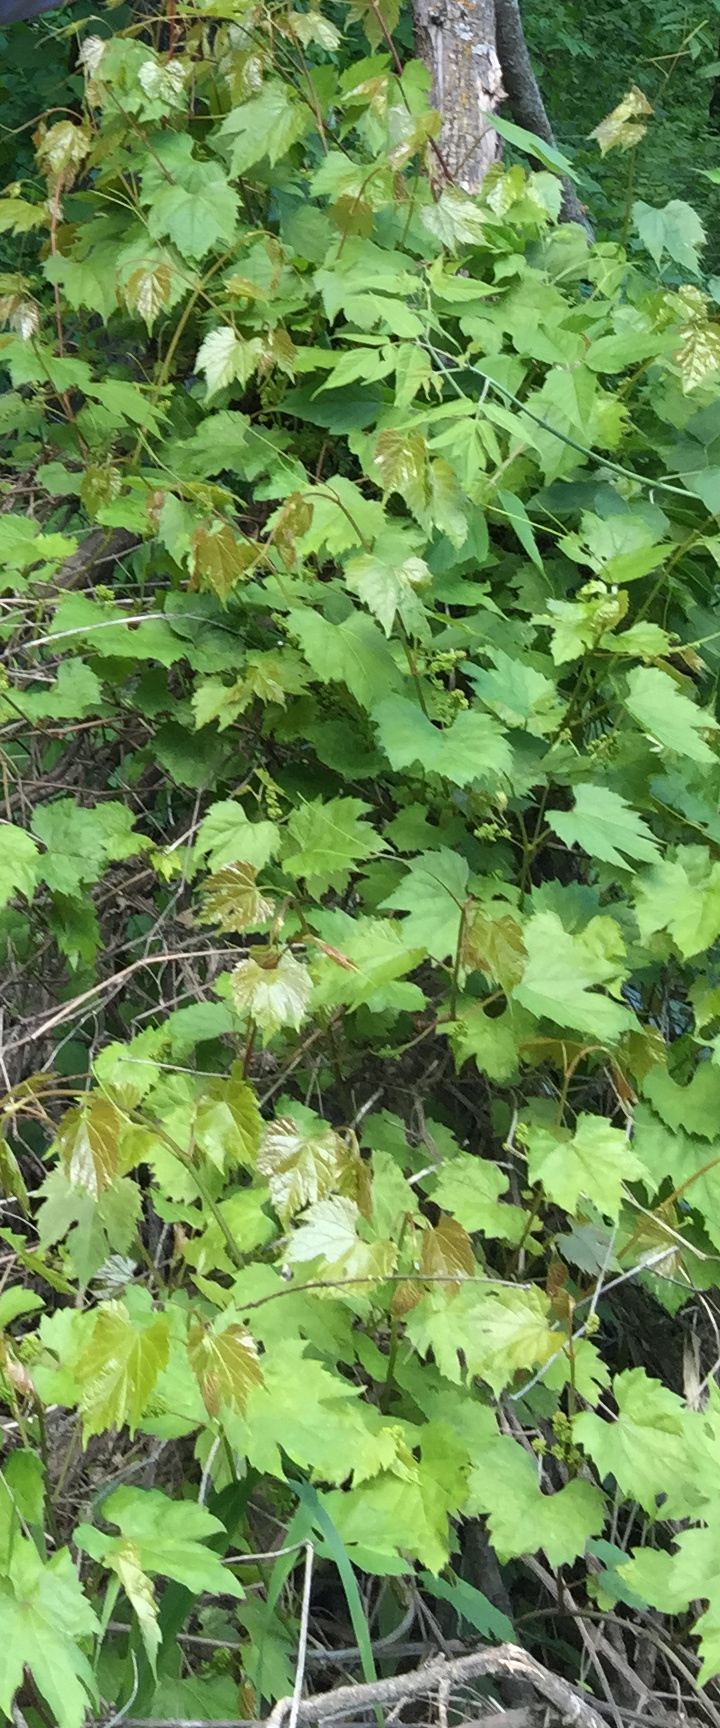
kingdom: Plantae
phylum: Tracheophyta
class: Magnoliopsida
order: Vitales
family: Vitaceae
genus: Vitis
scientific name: Vitis riparia
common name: Frost grape
